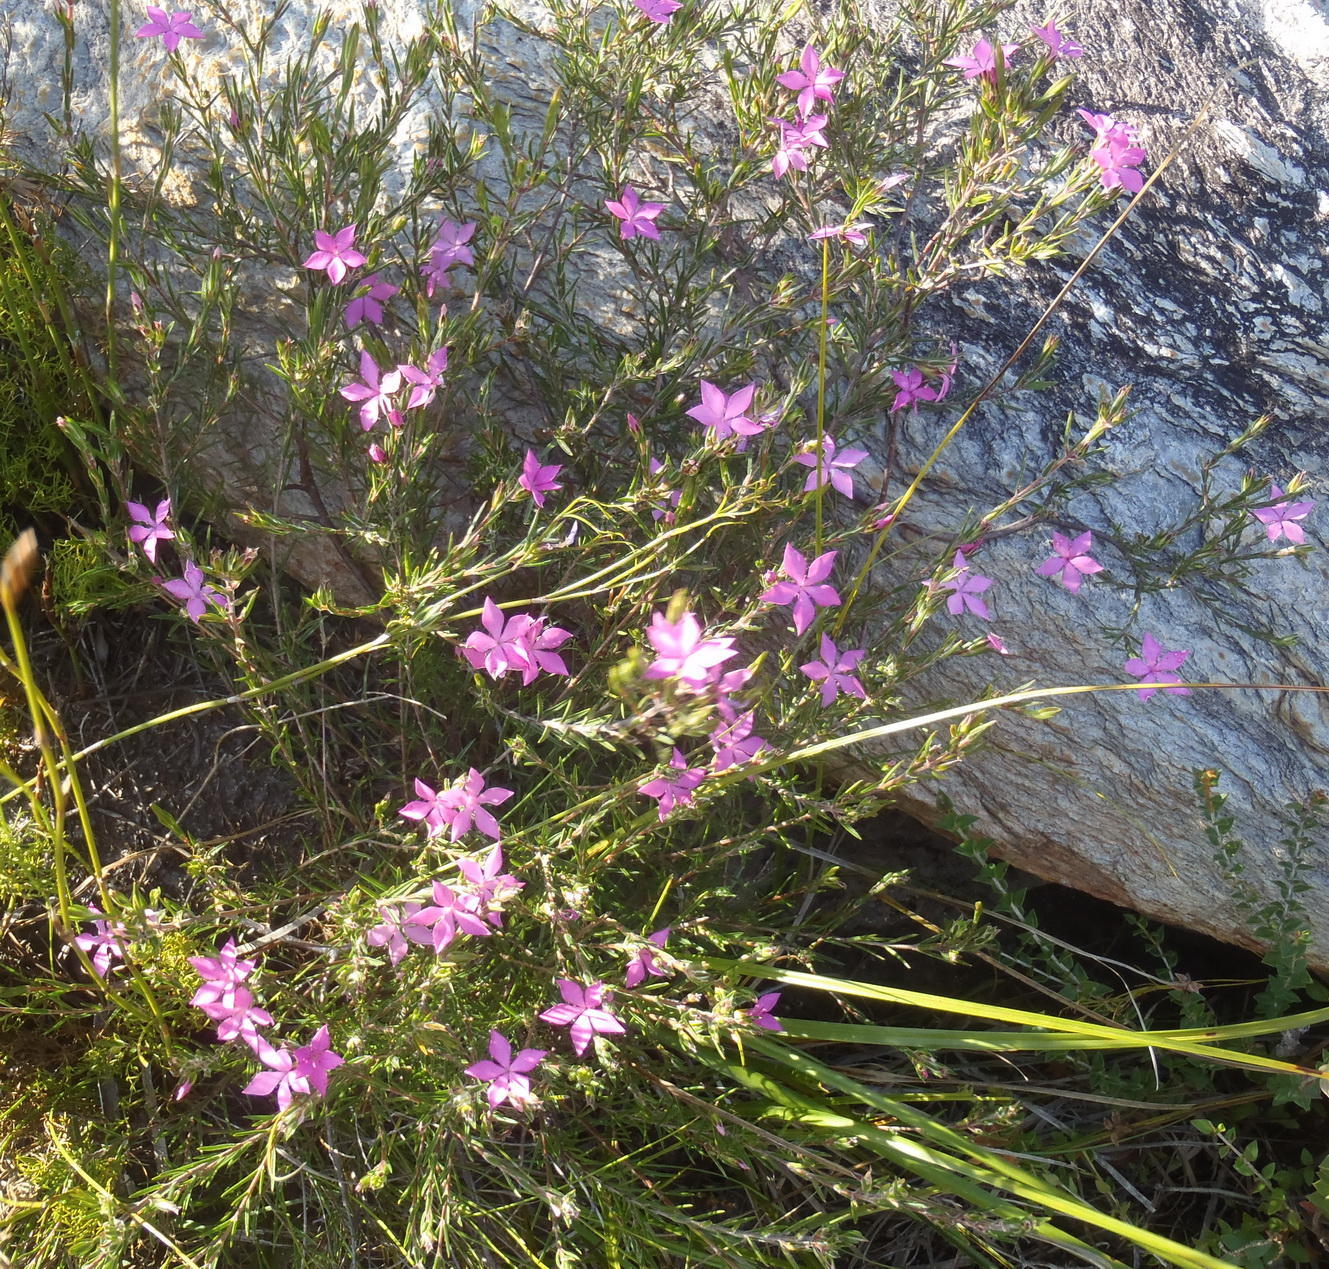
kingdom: Plantae
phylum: Tracheophyta
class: Magnoliopsida
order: Sapindales
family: Rutaceae
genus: Acmadenia
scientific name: Acmadenia trigona
